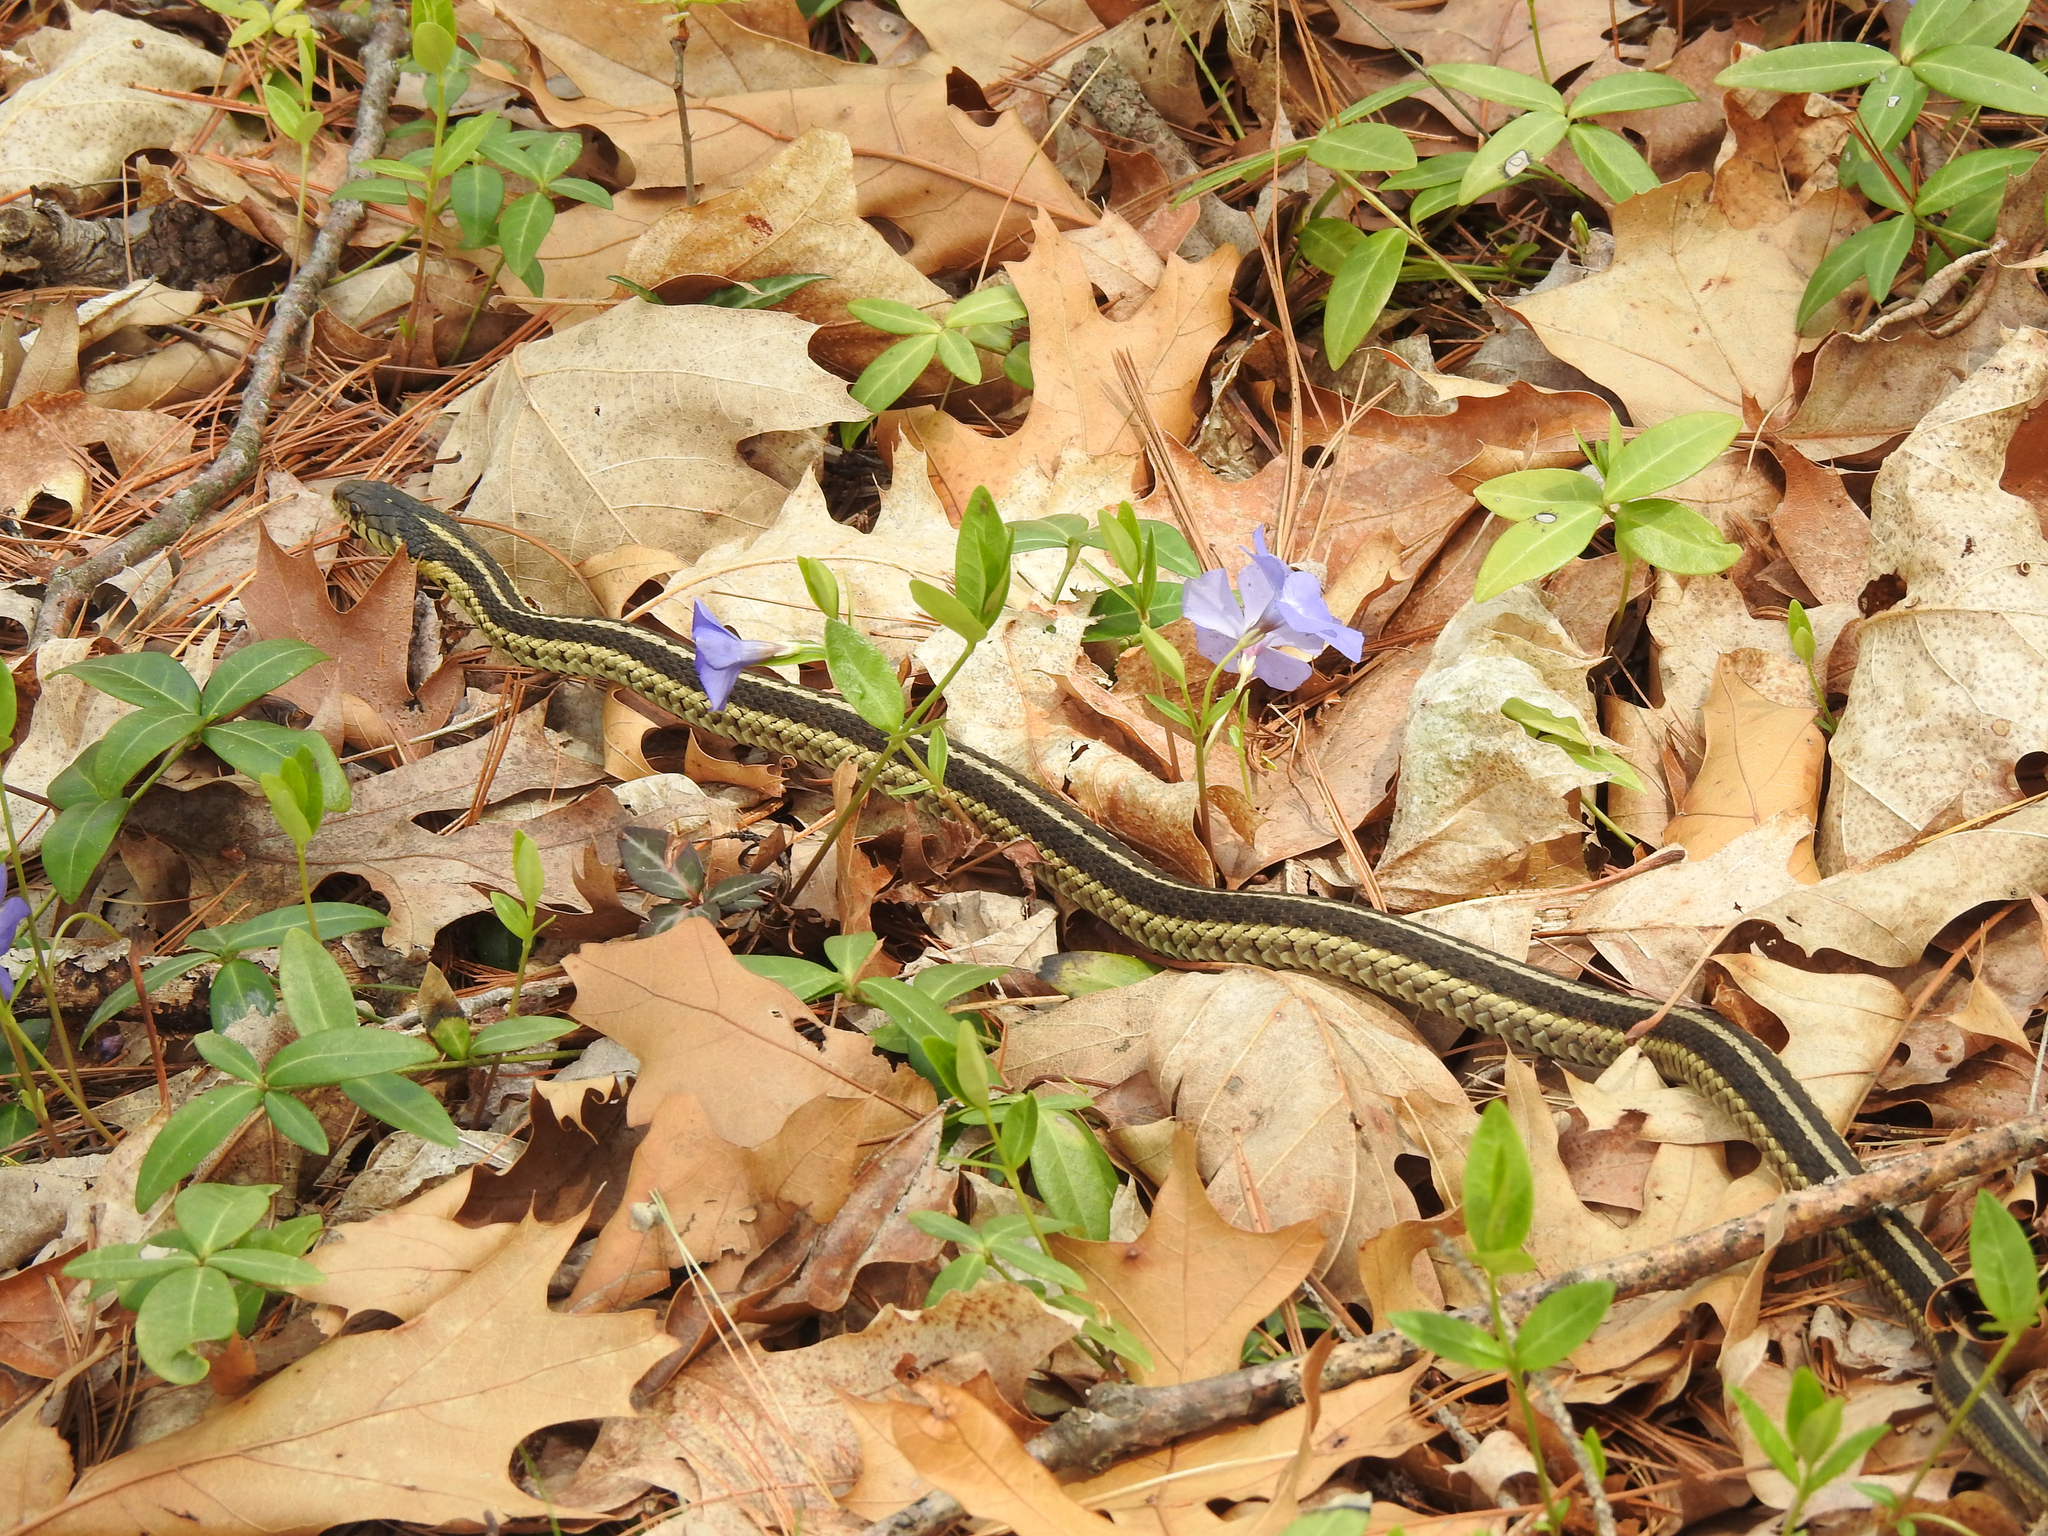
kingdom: Animalia
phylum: Chordata
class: Squamata
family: Colubridae
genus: Thamnophis
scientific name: Thamnophis sirtalis
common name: Common garter snake
